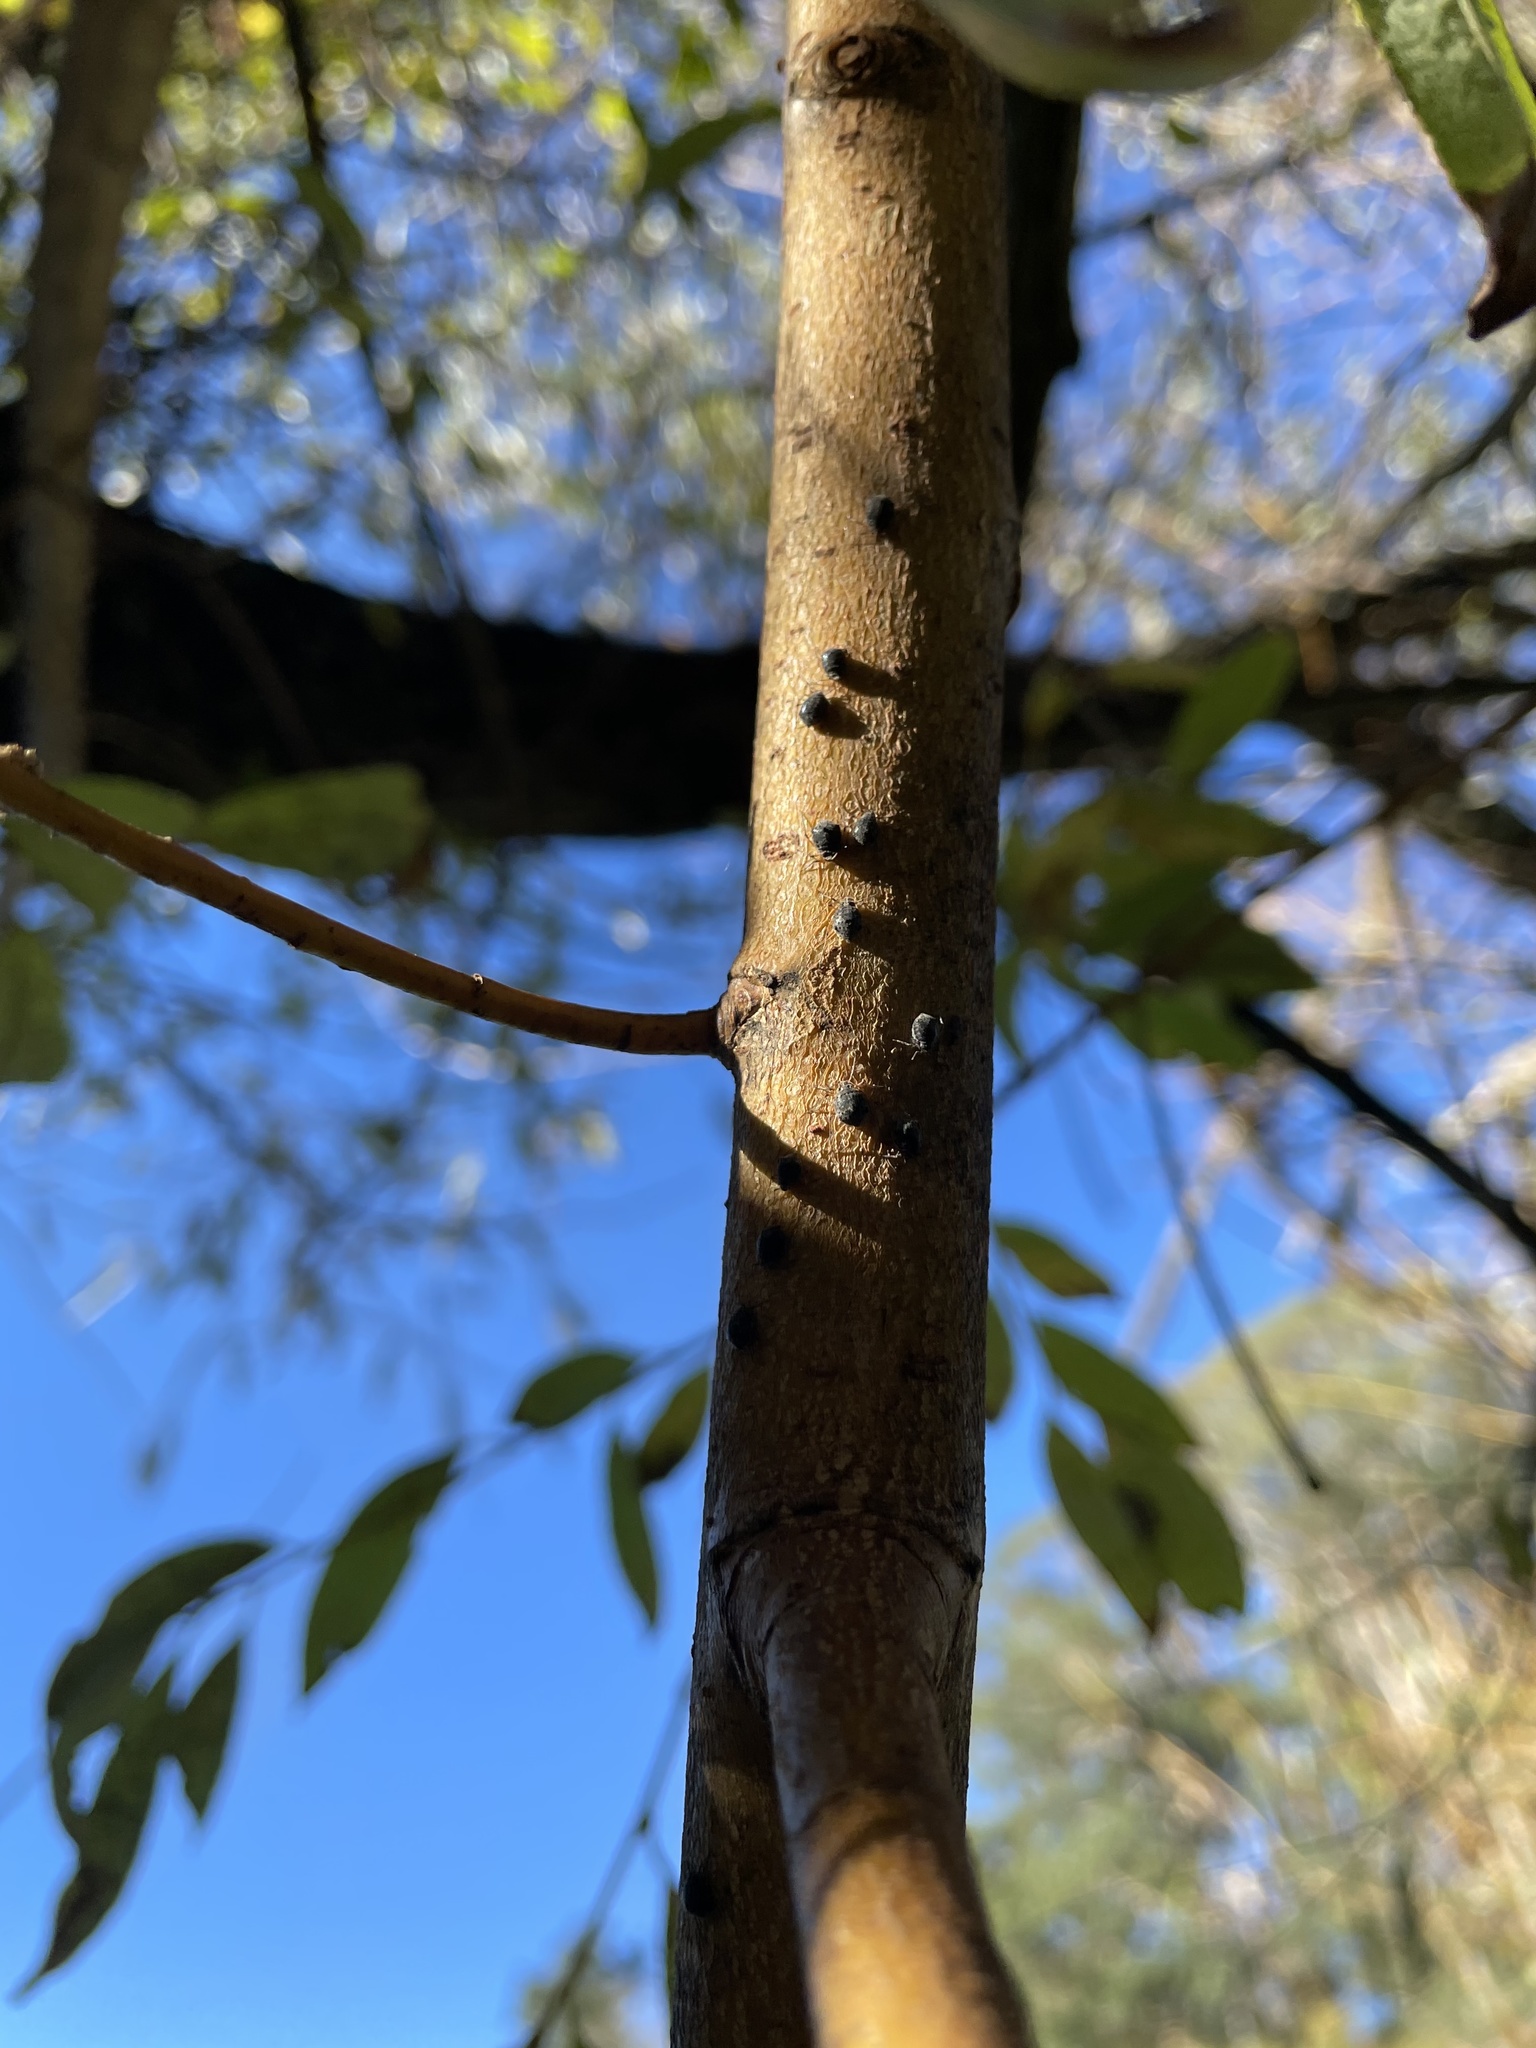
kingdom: Animalia
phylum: Arthropoda
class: Insecta
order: Hymenoptera
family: Braconidae
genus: Pauesia
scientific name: Pauesia nigrovaria
